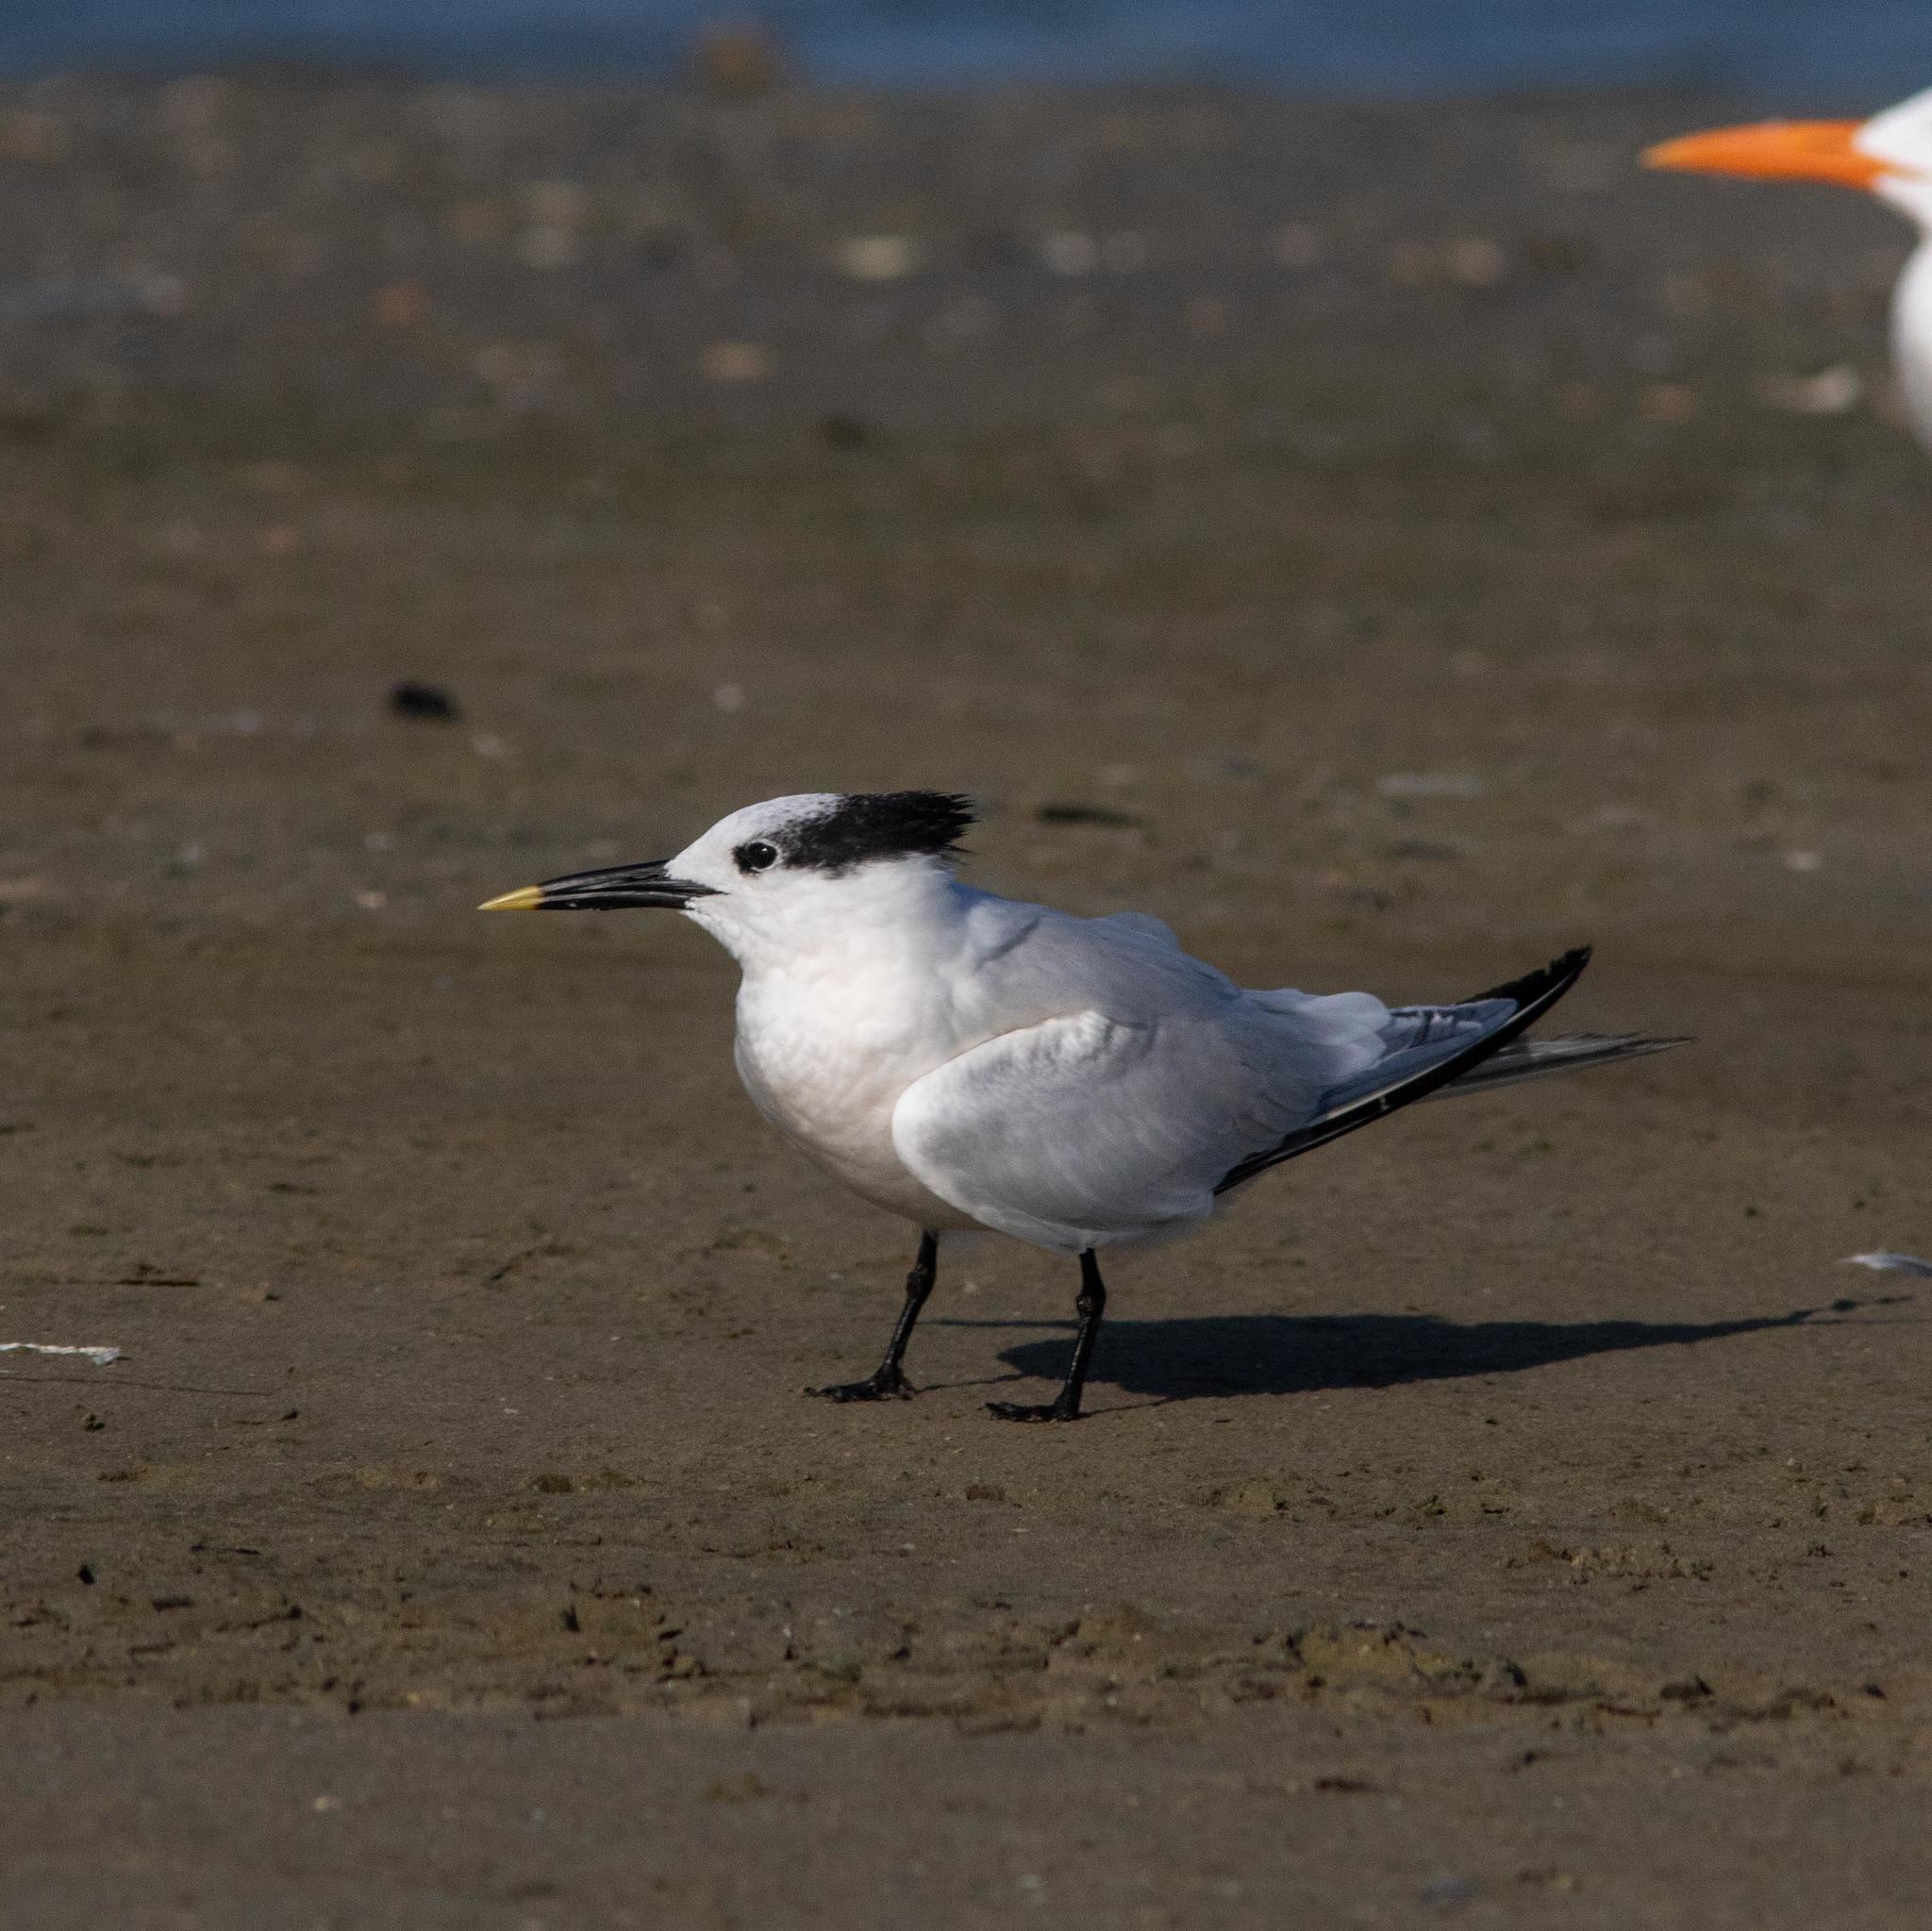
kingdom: Animalia
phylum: Chordata
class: Aves
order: Charadriiformes
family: Laridae
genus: Thalasseus
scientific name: Thalasseus sandvicensis
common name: Sandwich tern
